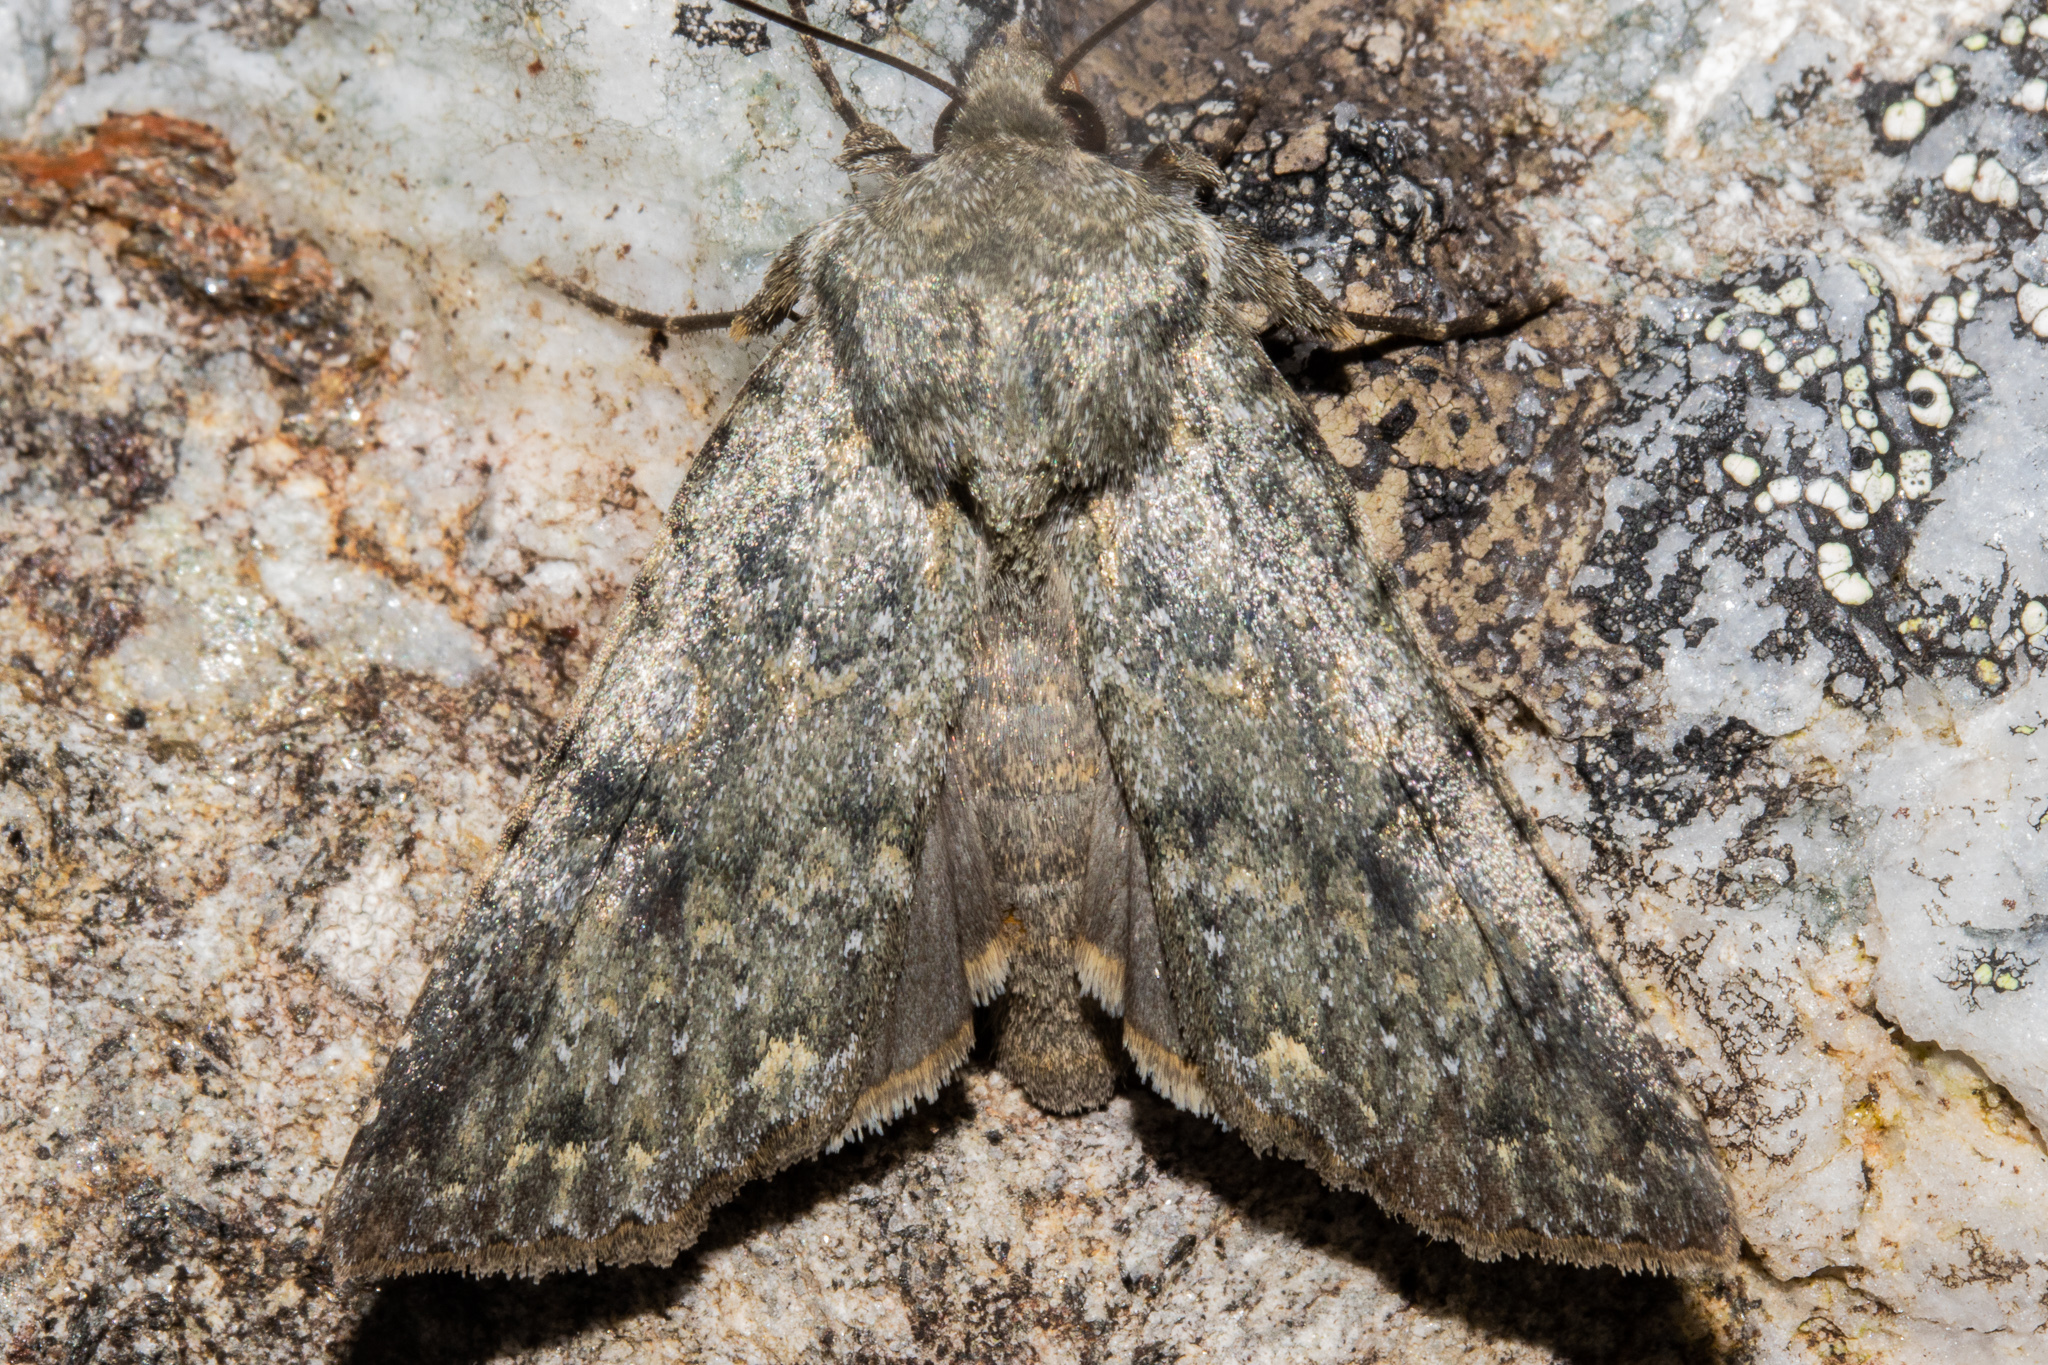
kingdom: Animalia
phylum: Arthropoda
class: Insecta
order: Lepidoptera
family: Noctuidae
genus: Ichneutica
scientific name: Ichneutica
